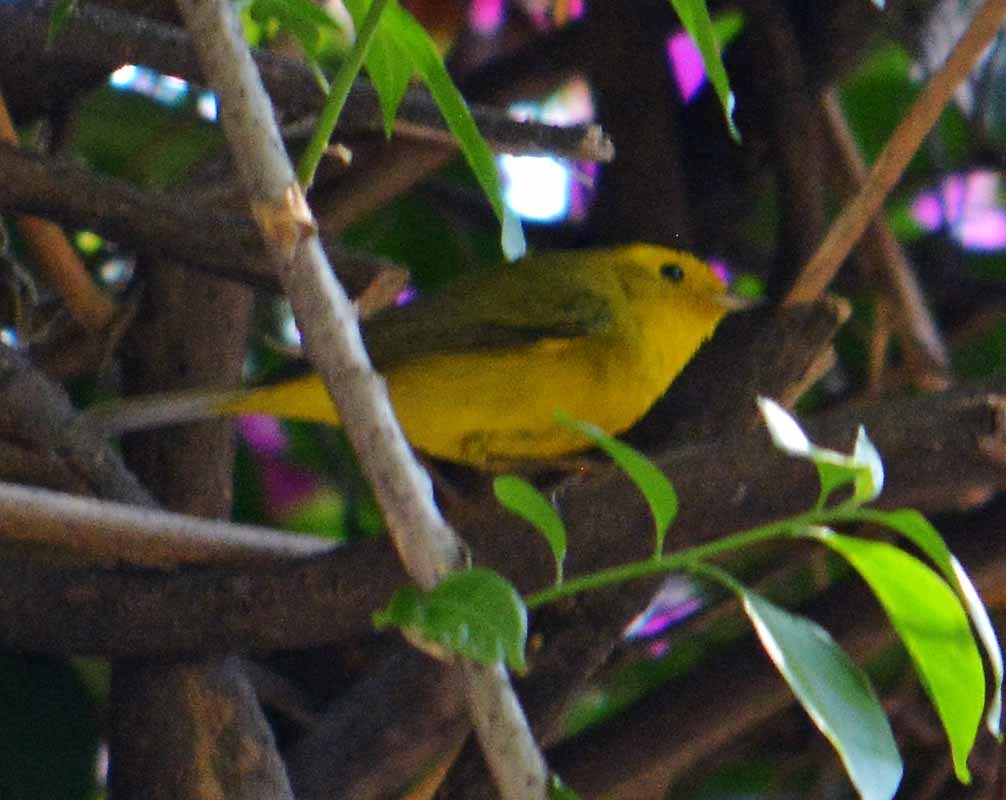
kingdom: Animalia
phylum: Chordata
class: Aves
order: Passeriformes
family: Parulidae
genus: Cardellina
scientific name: Cardellina pusilla
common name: Wilson's warbler
